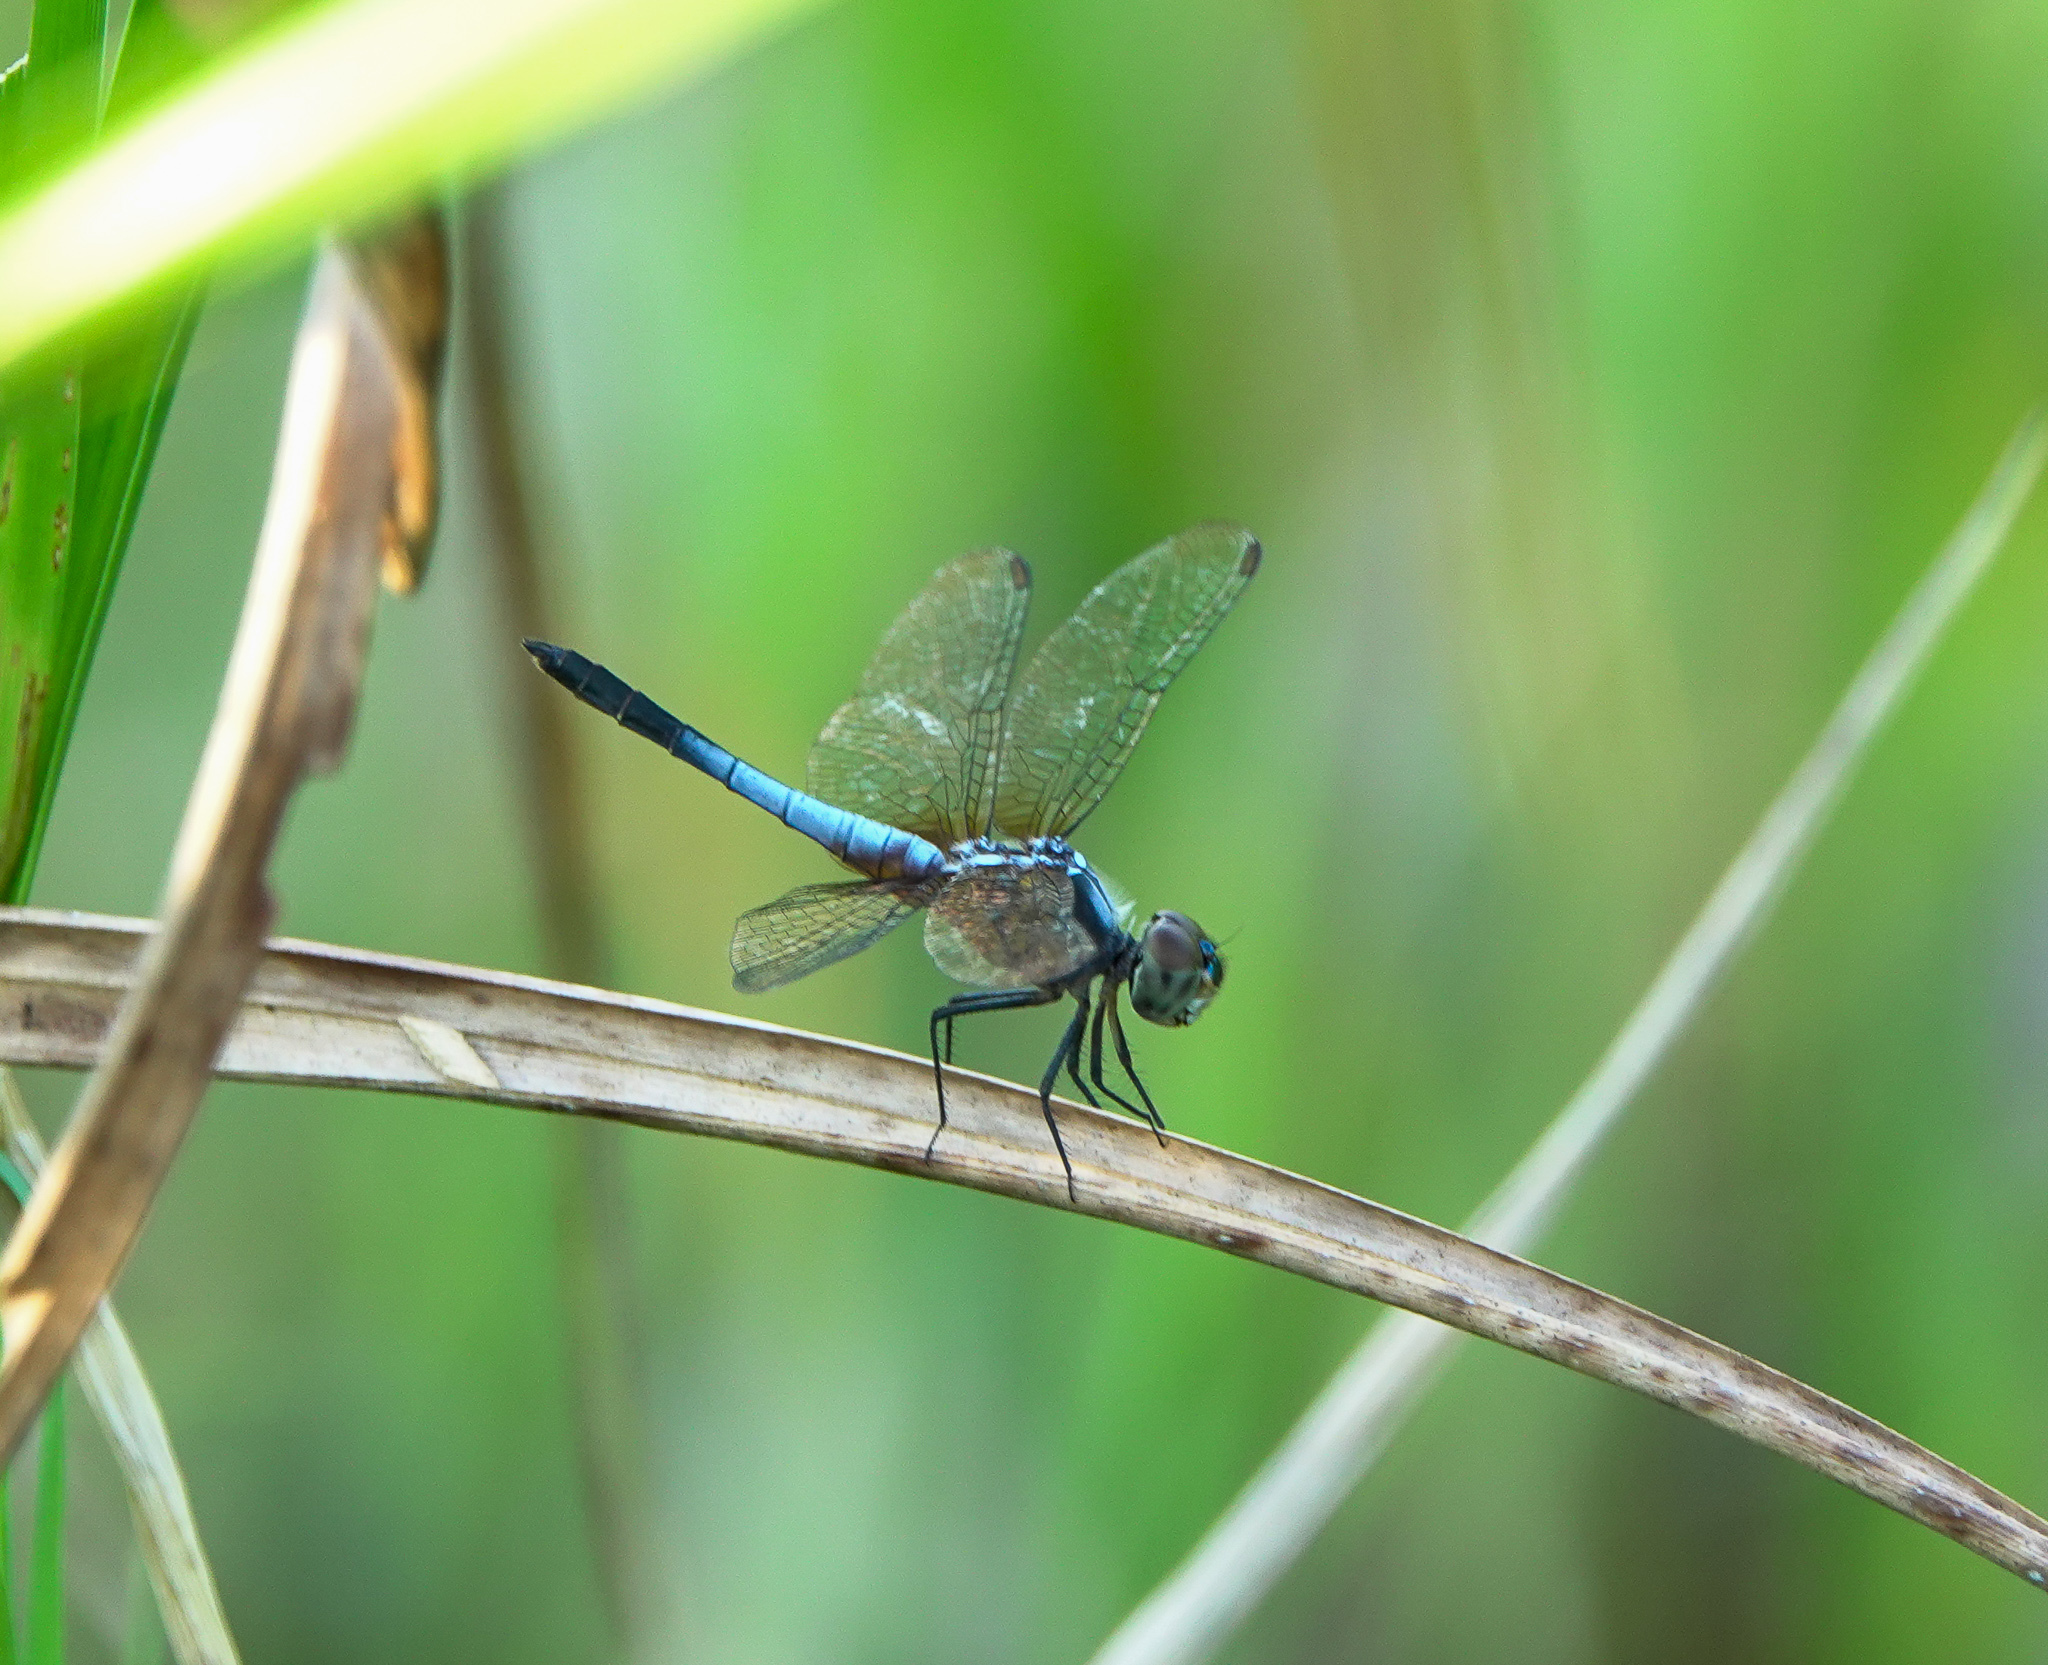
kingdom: Animalia
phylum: Arthropoda
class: Insecta
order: Odonata
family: Libellulidae
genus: Brachydiplax
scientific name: Brachydiplax chalybea
